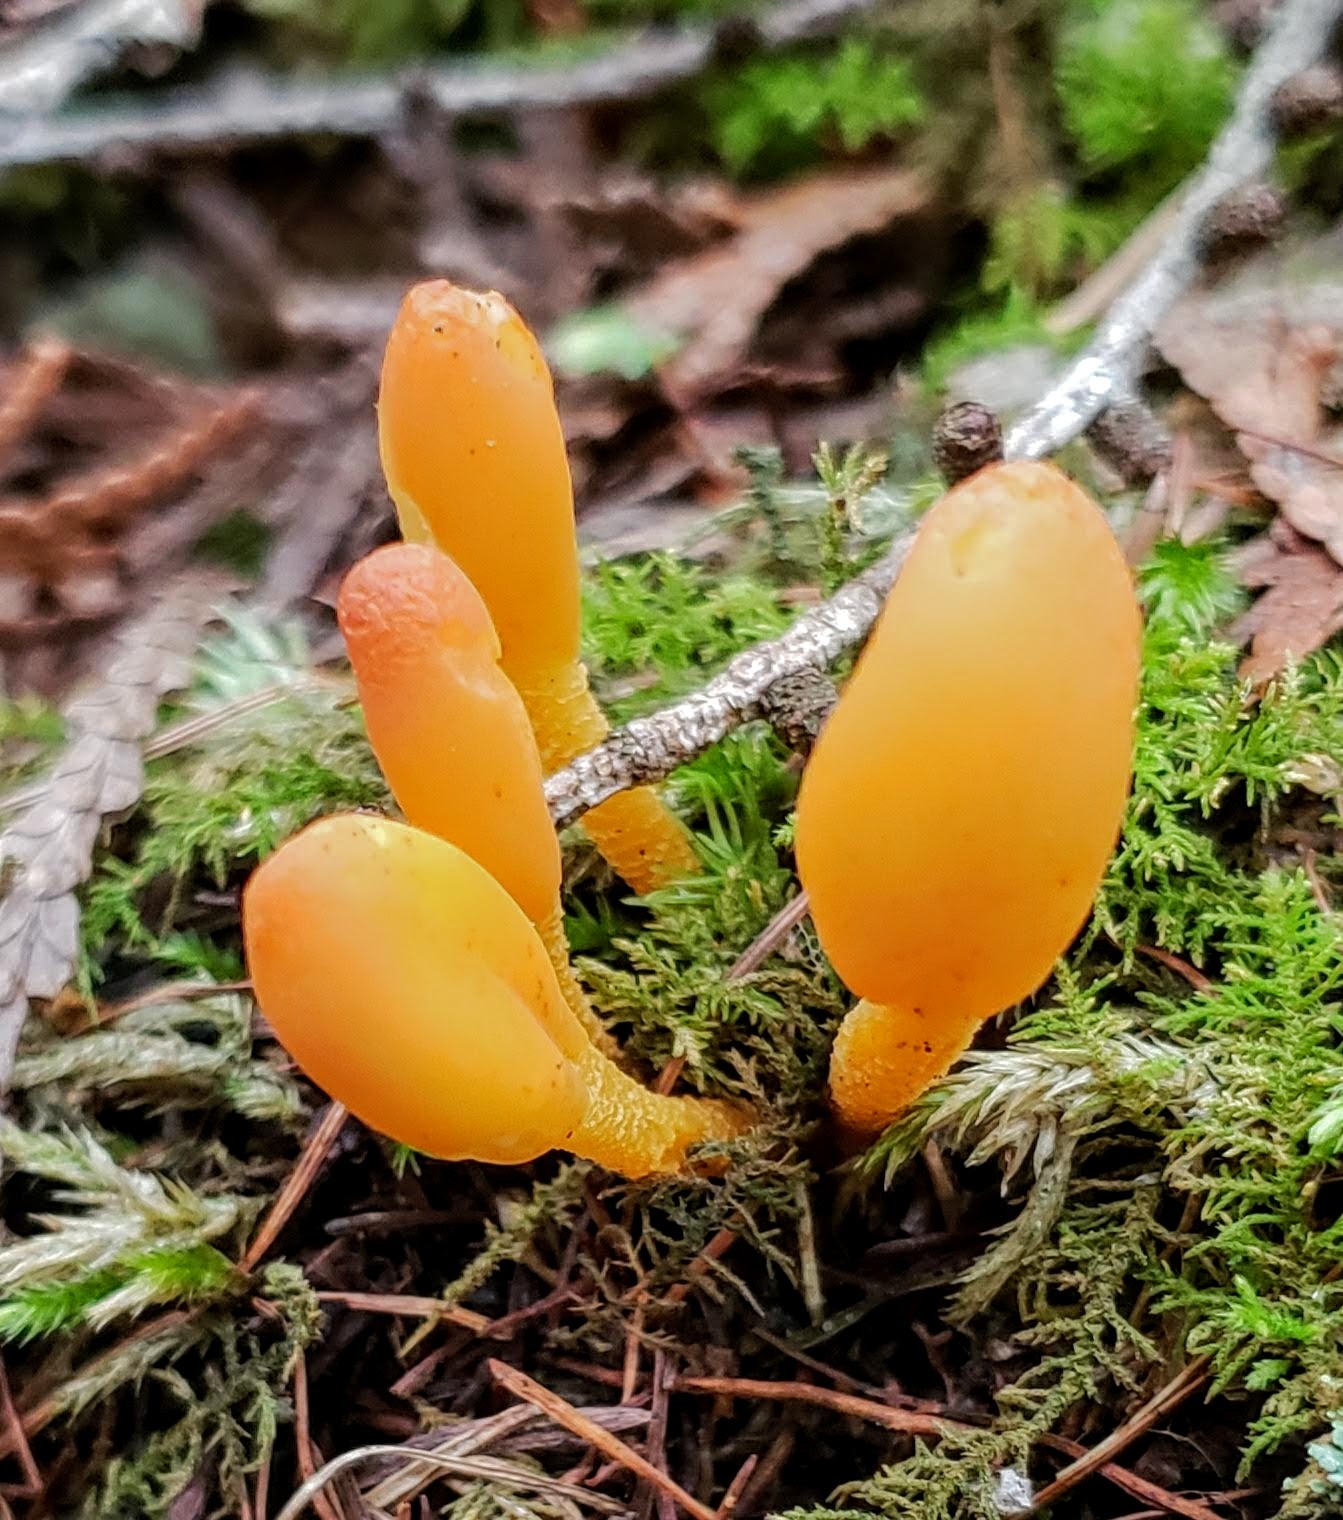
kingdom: Fungi
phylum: Ascomycota
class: Leotiomycetes
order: Leotiales
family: Leotiaceae
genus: Microglossum
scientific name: Microglossum rufum
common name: Orange earthtongue
